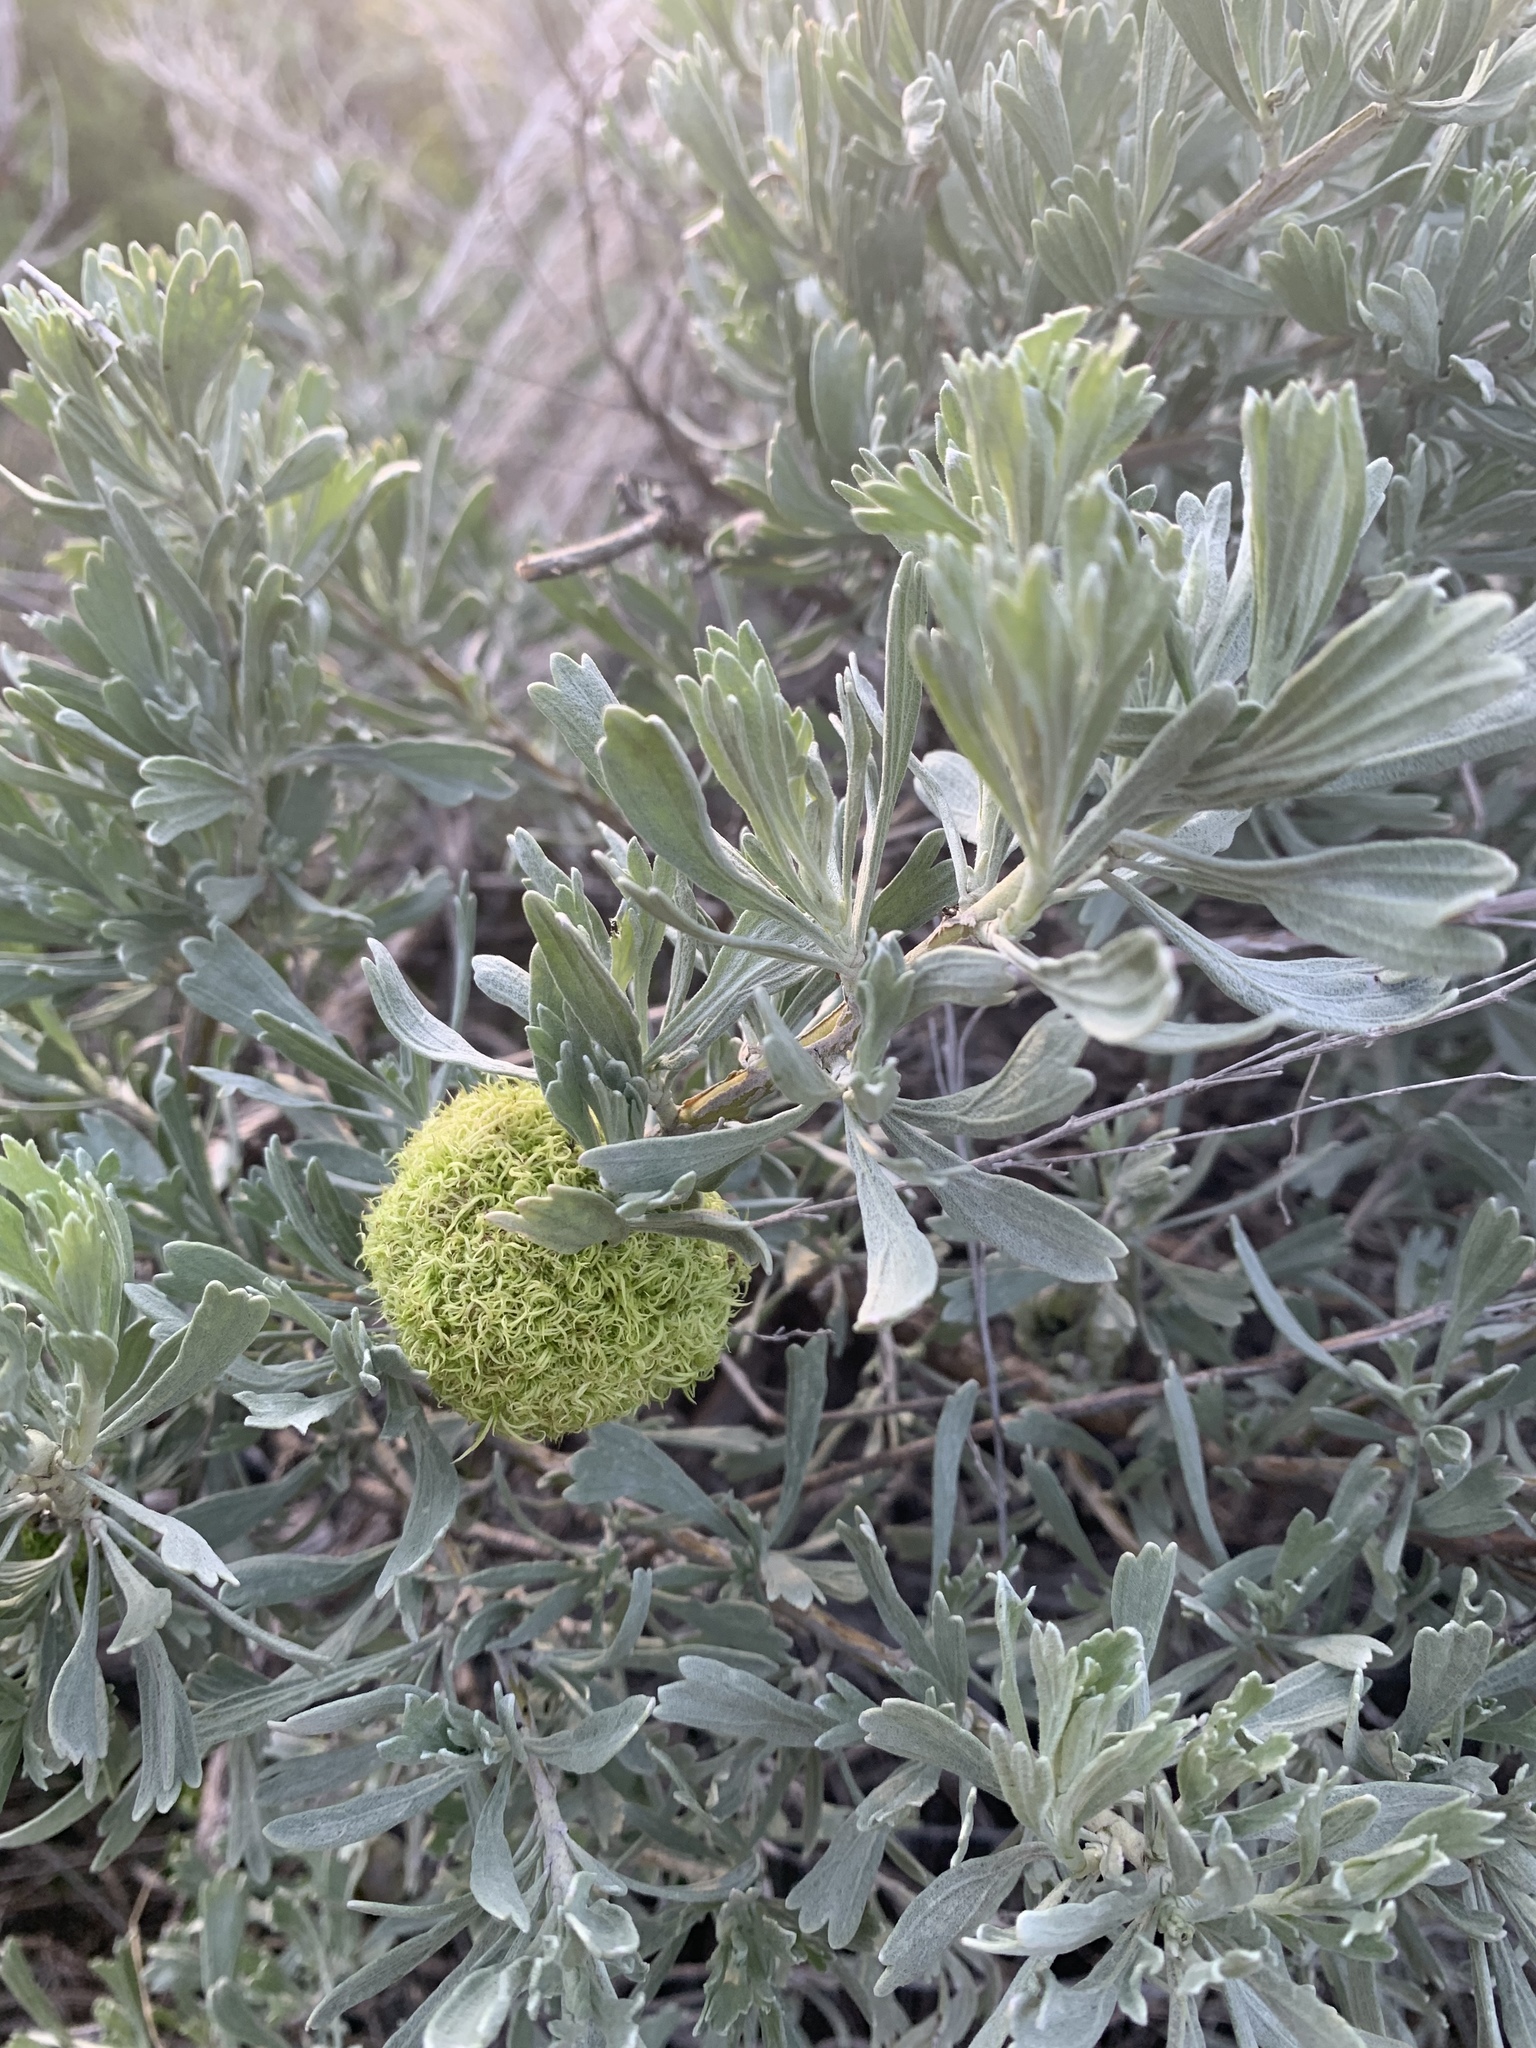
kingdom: Plantae
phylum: Tracheophyta
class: Magnoliopsida
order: Asterales
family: Asteraceae
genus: Artemisia
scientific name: Artemisia tridentata
